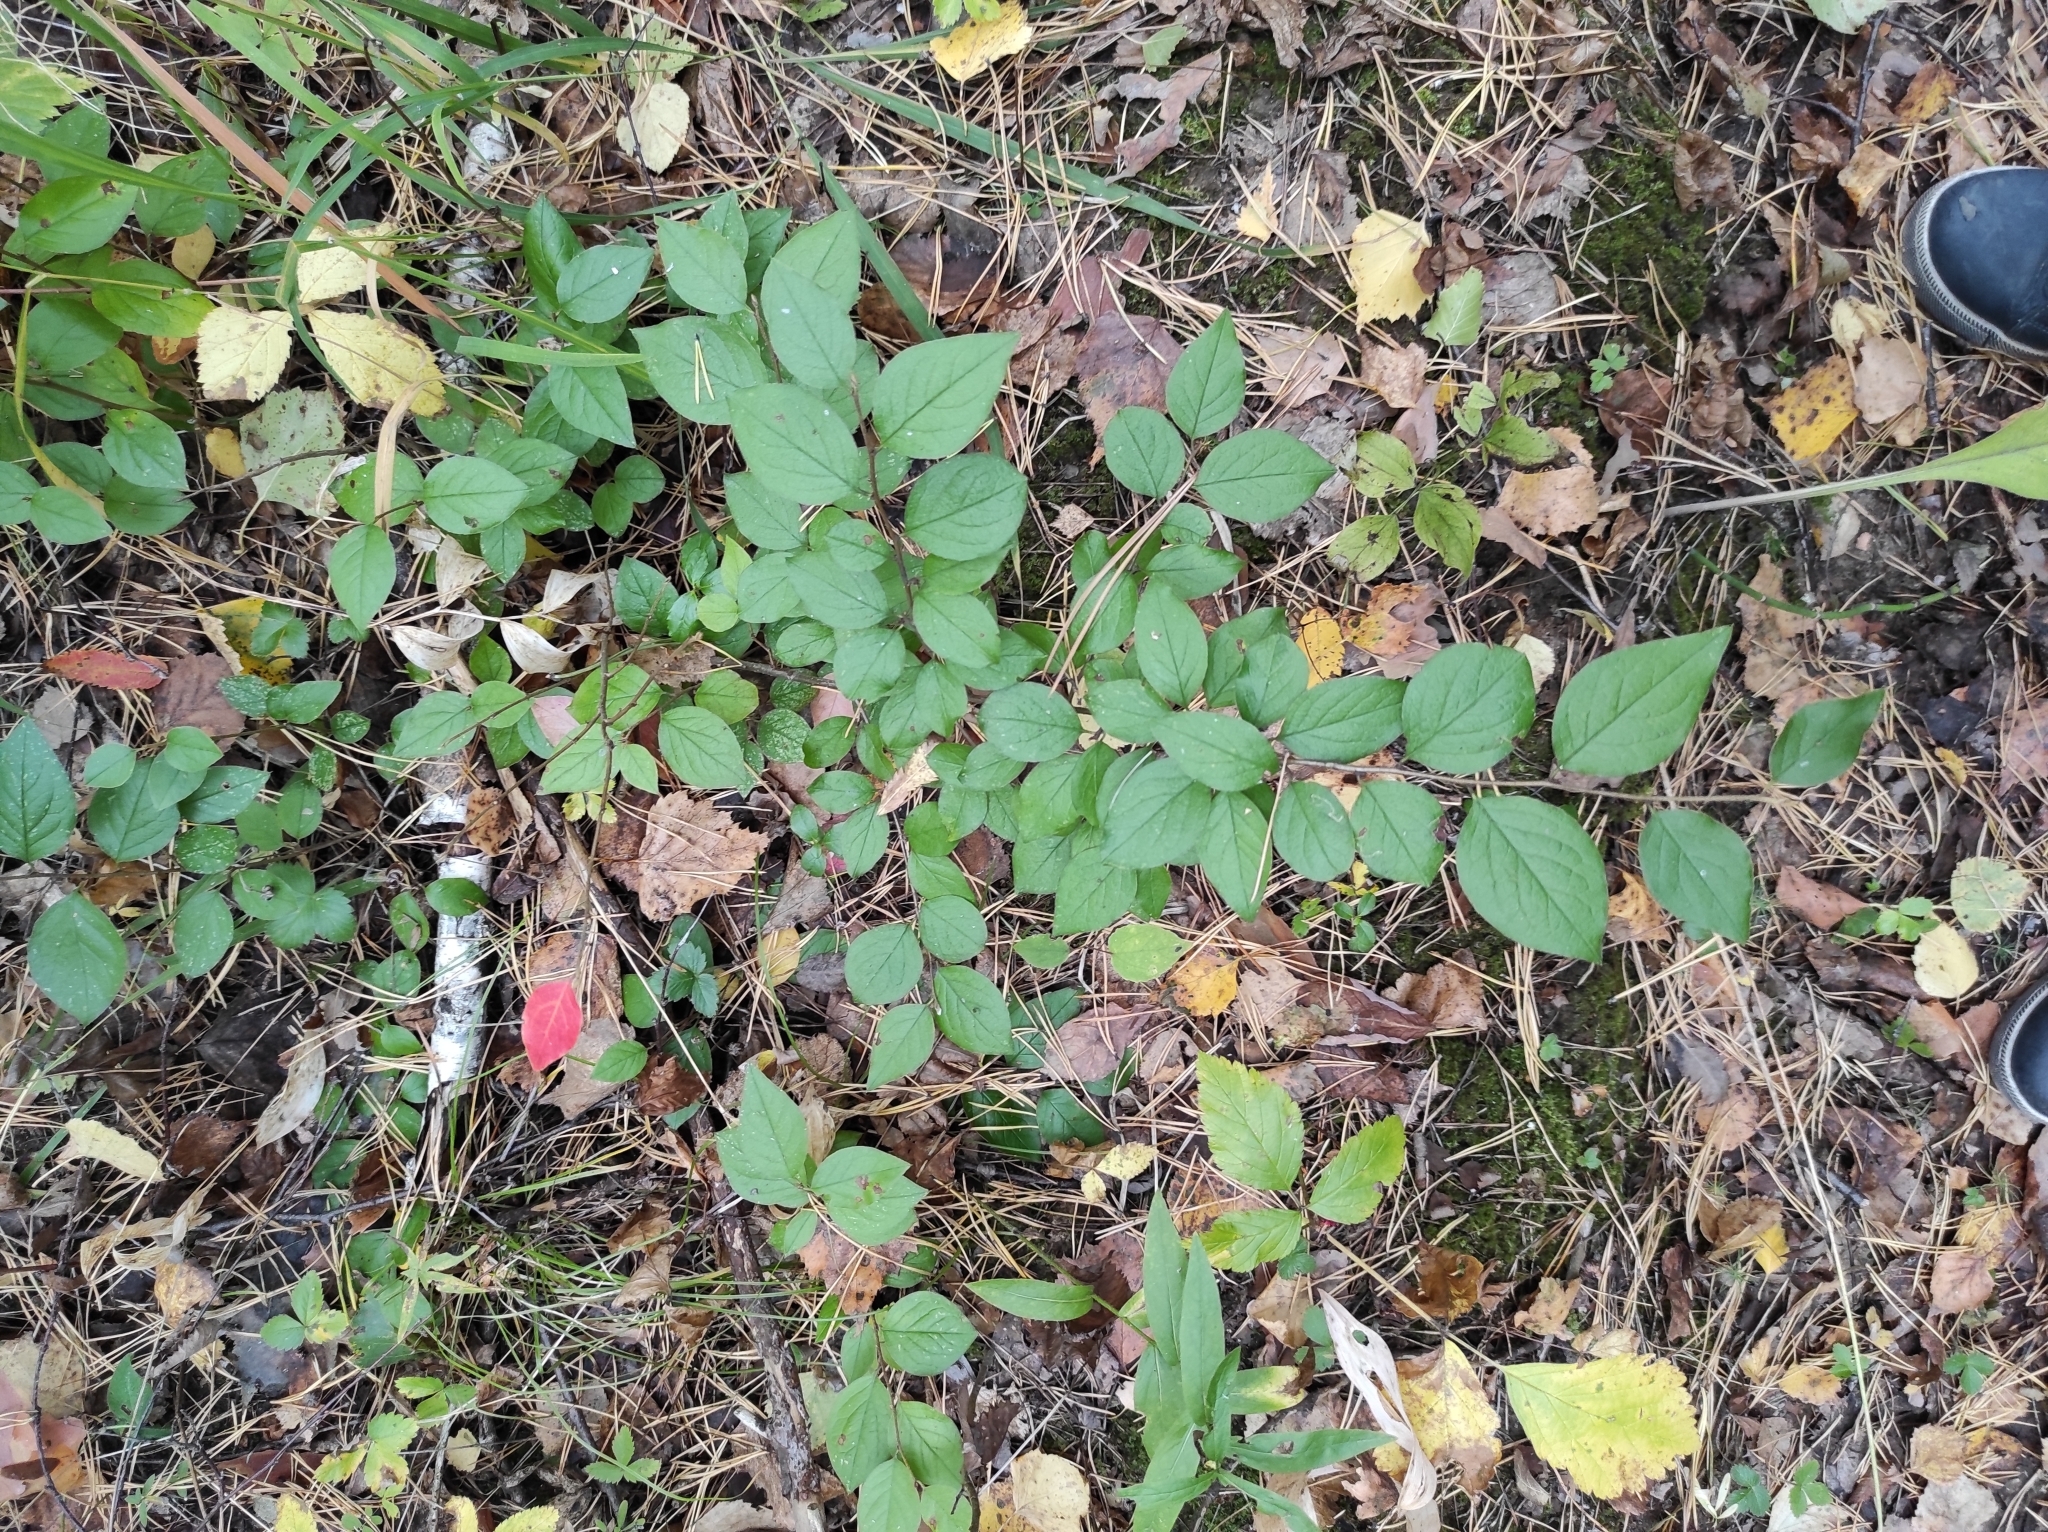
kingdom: Plantae
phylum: Tracheophyta
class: Magnoliopsida
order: Rosales
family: Rosaceae
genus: Cotoneaster
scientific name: Cotoneaster acutifolius
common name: Peking cotoneaster
